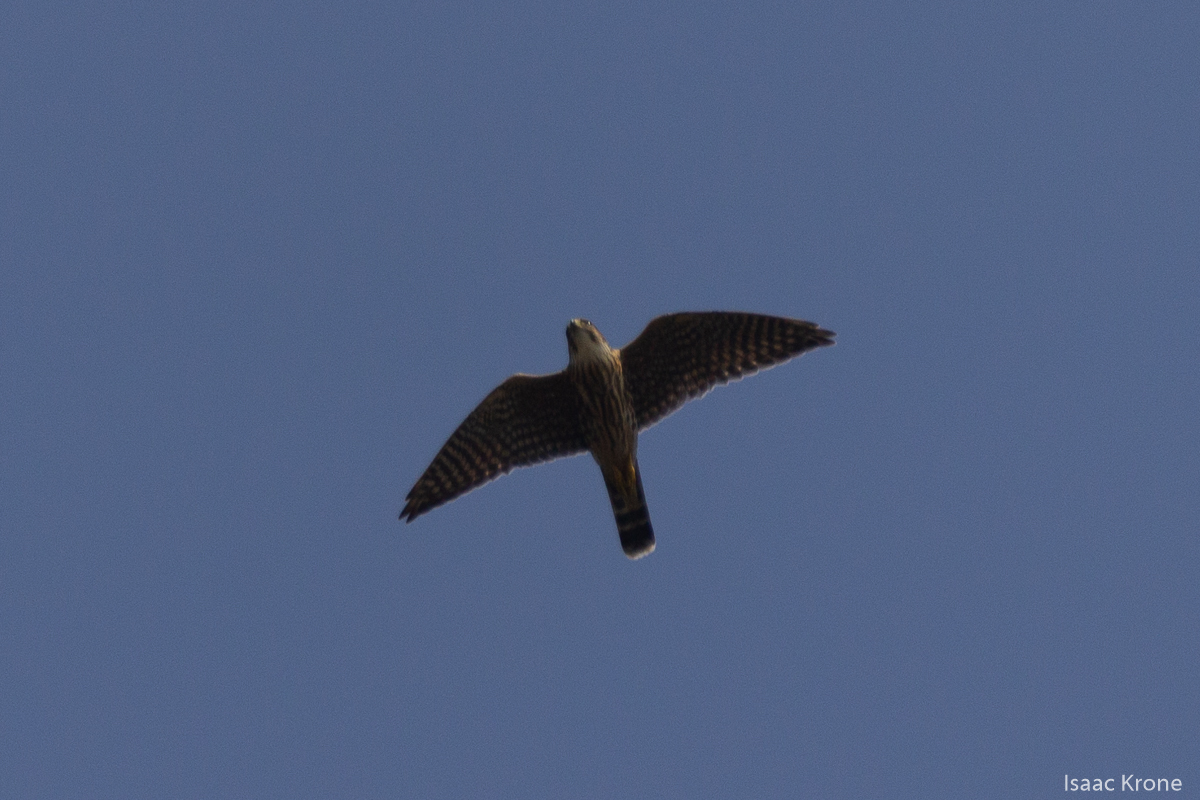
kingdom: Animalia
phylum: Chordata
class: Aves
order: Falconiformes
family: Falconidae
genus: Falco
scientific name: Falco sparverius
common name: American kestrel
